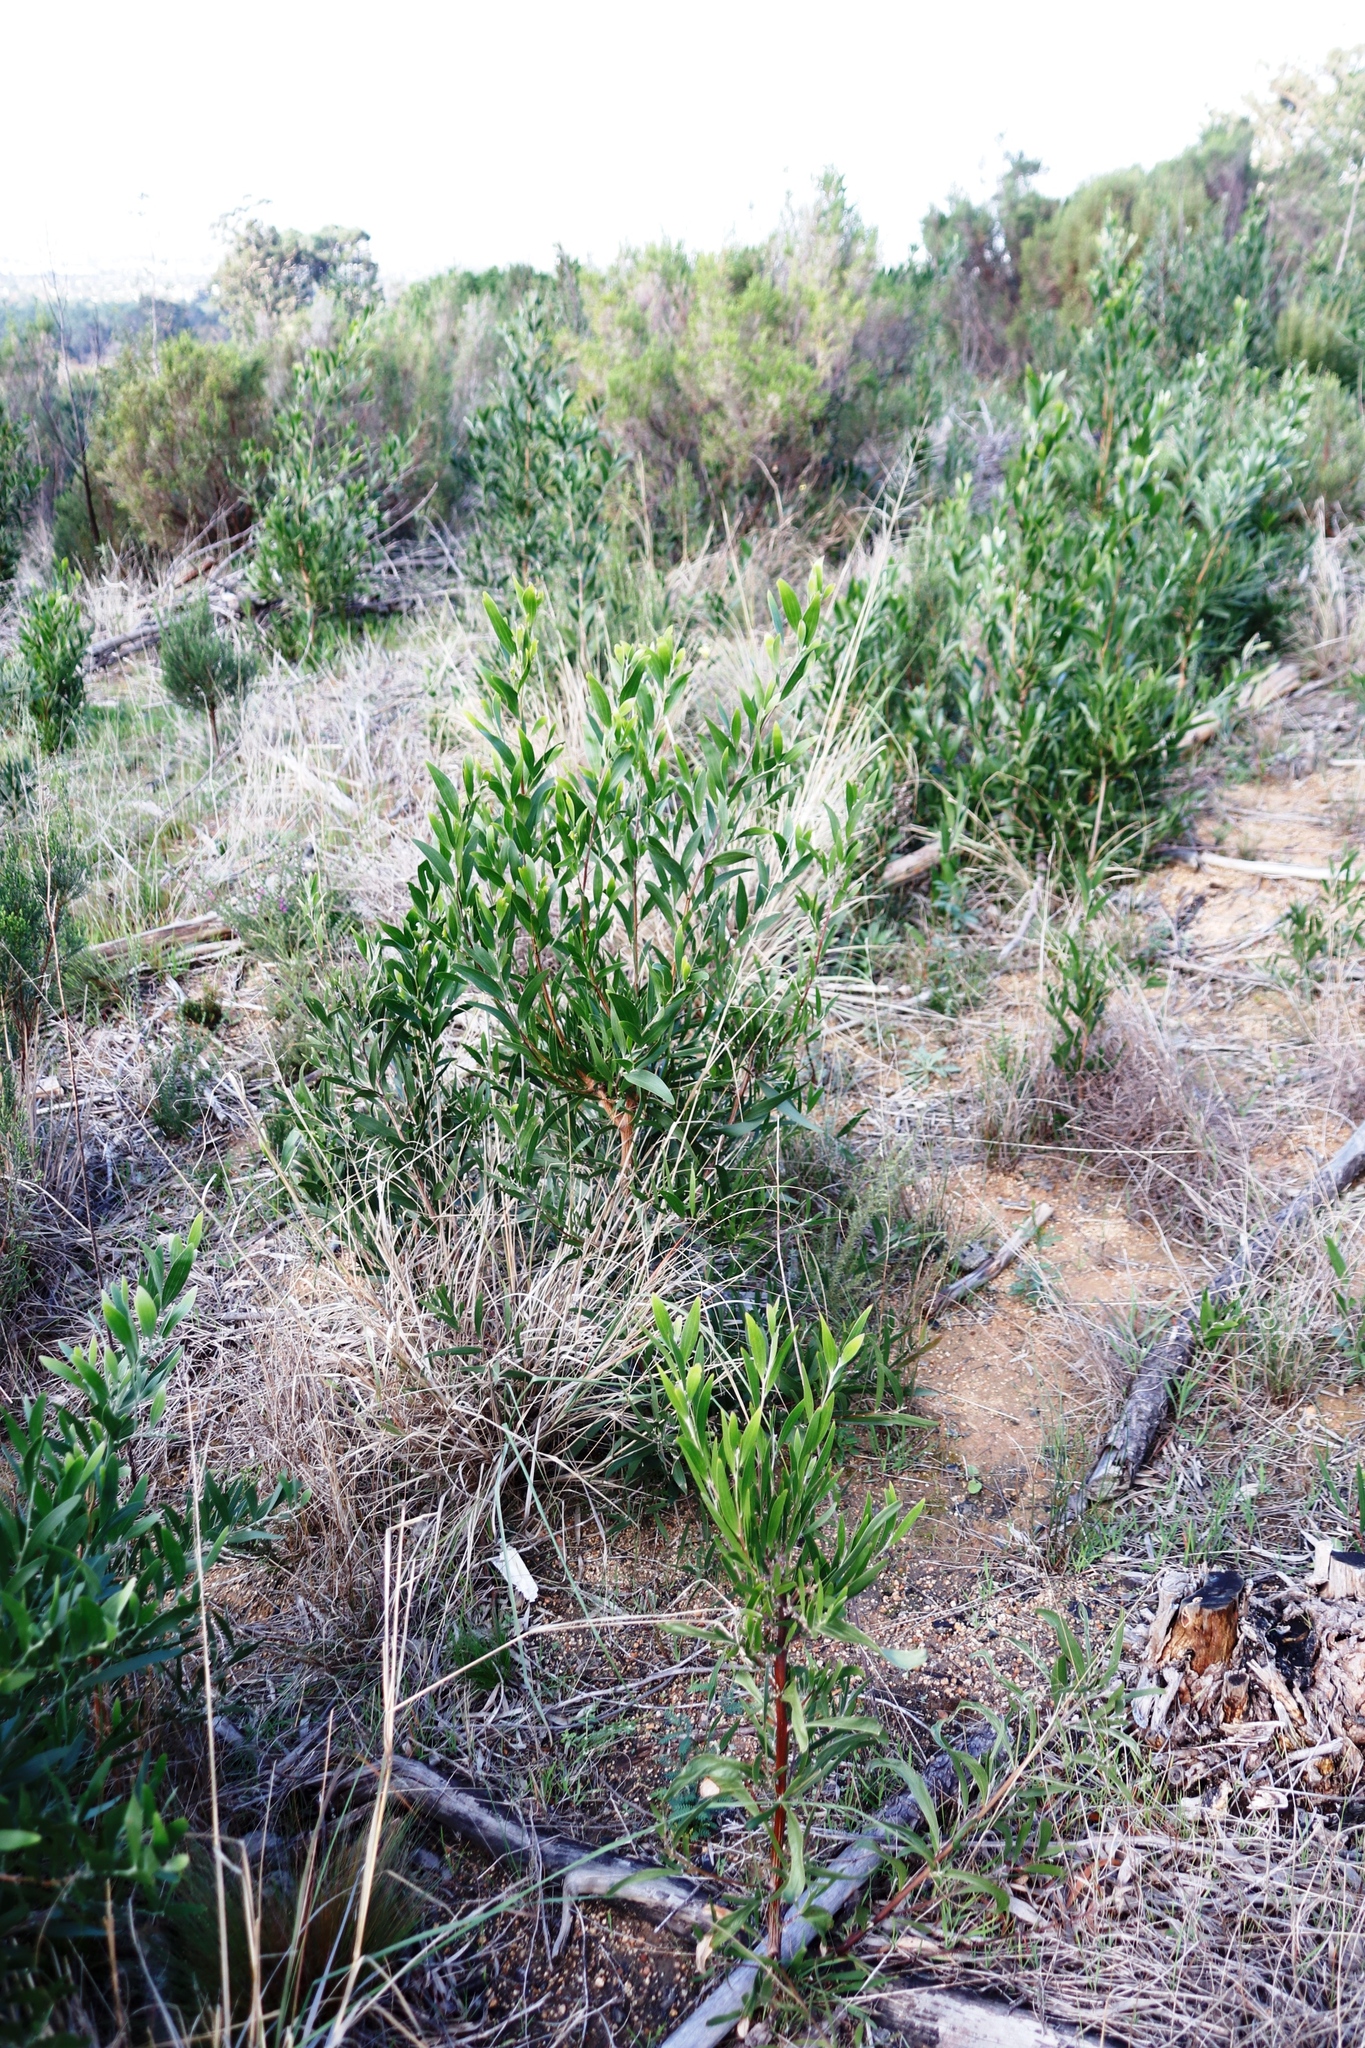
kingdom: Plantae
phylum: Tracheophyta
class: Magnoliopsida
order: Fabales
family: Fabaceae
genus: Acacia
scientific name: Acacia longifolia
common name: Sydney golden wattle
